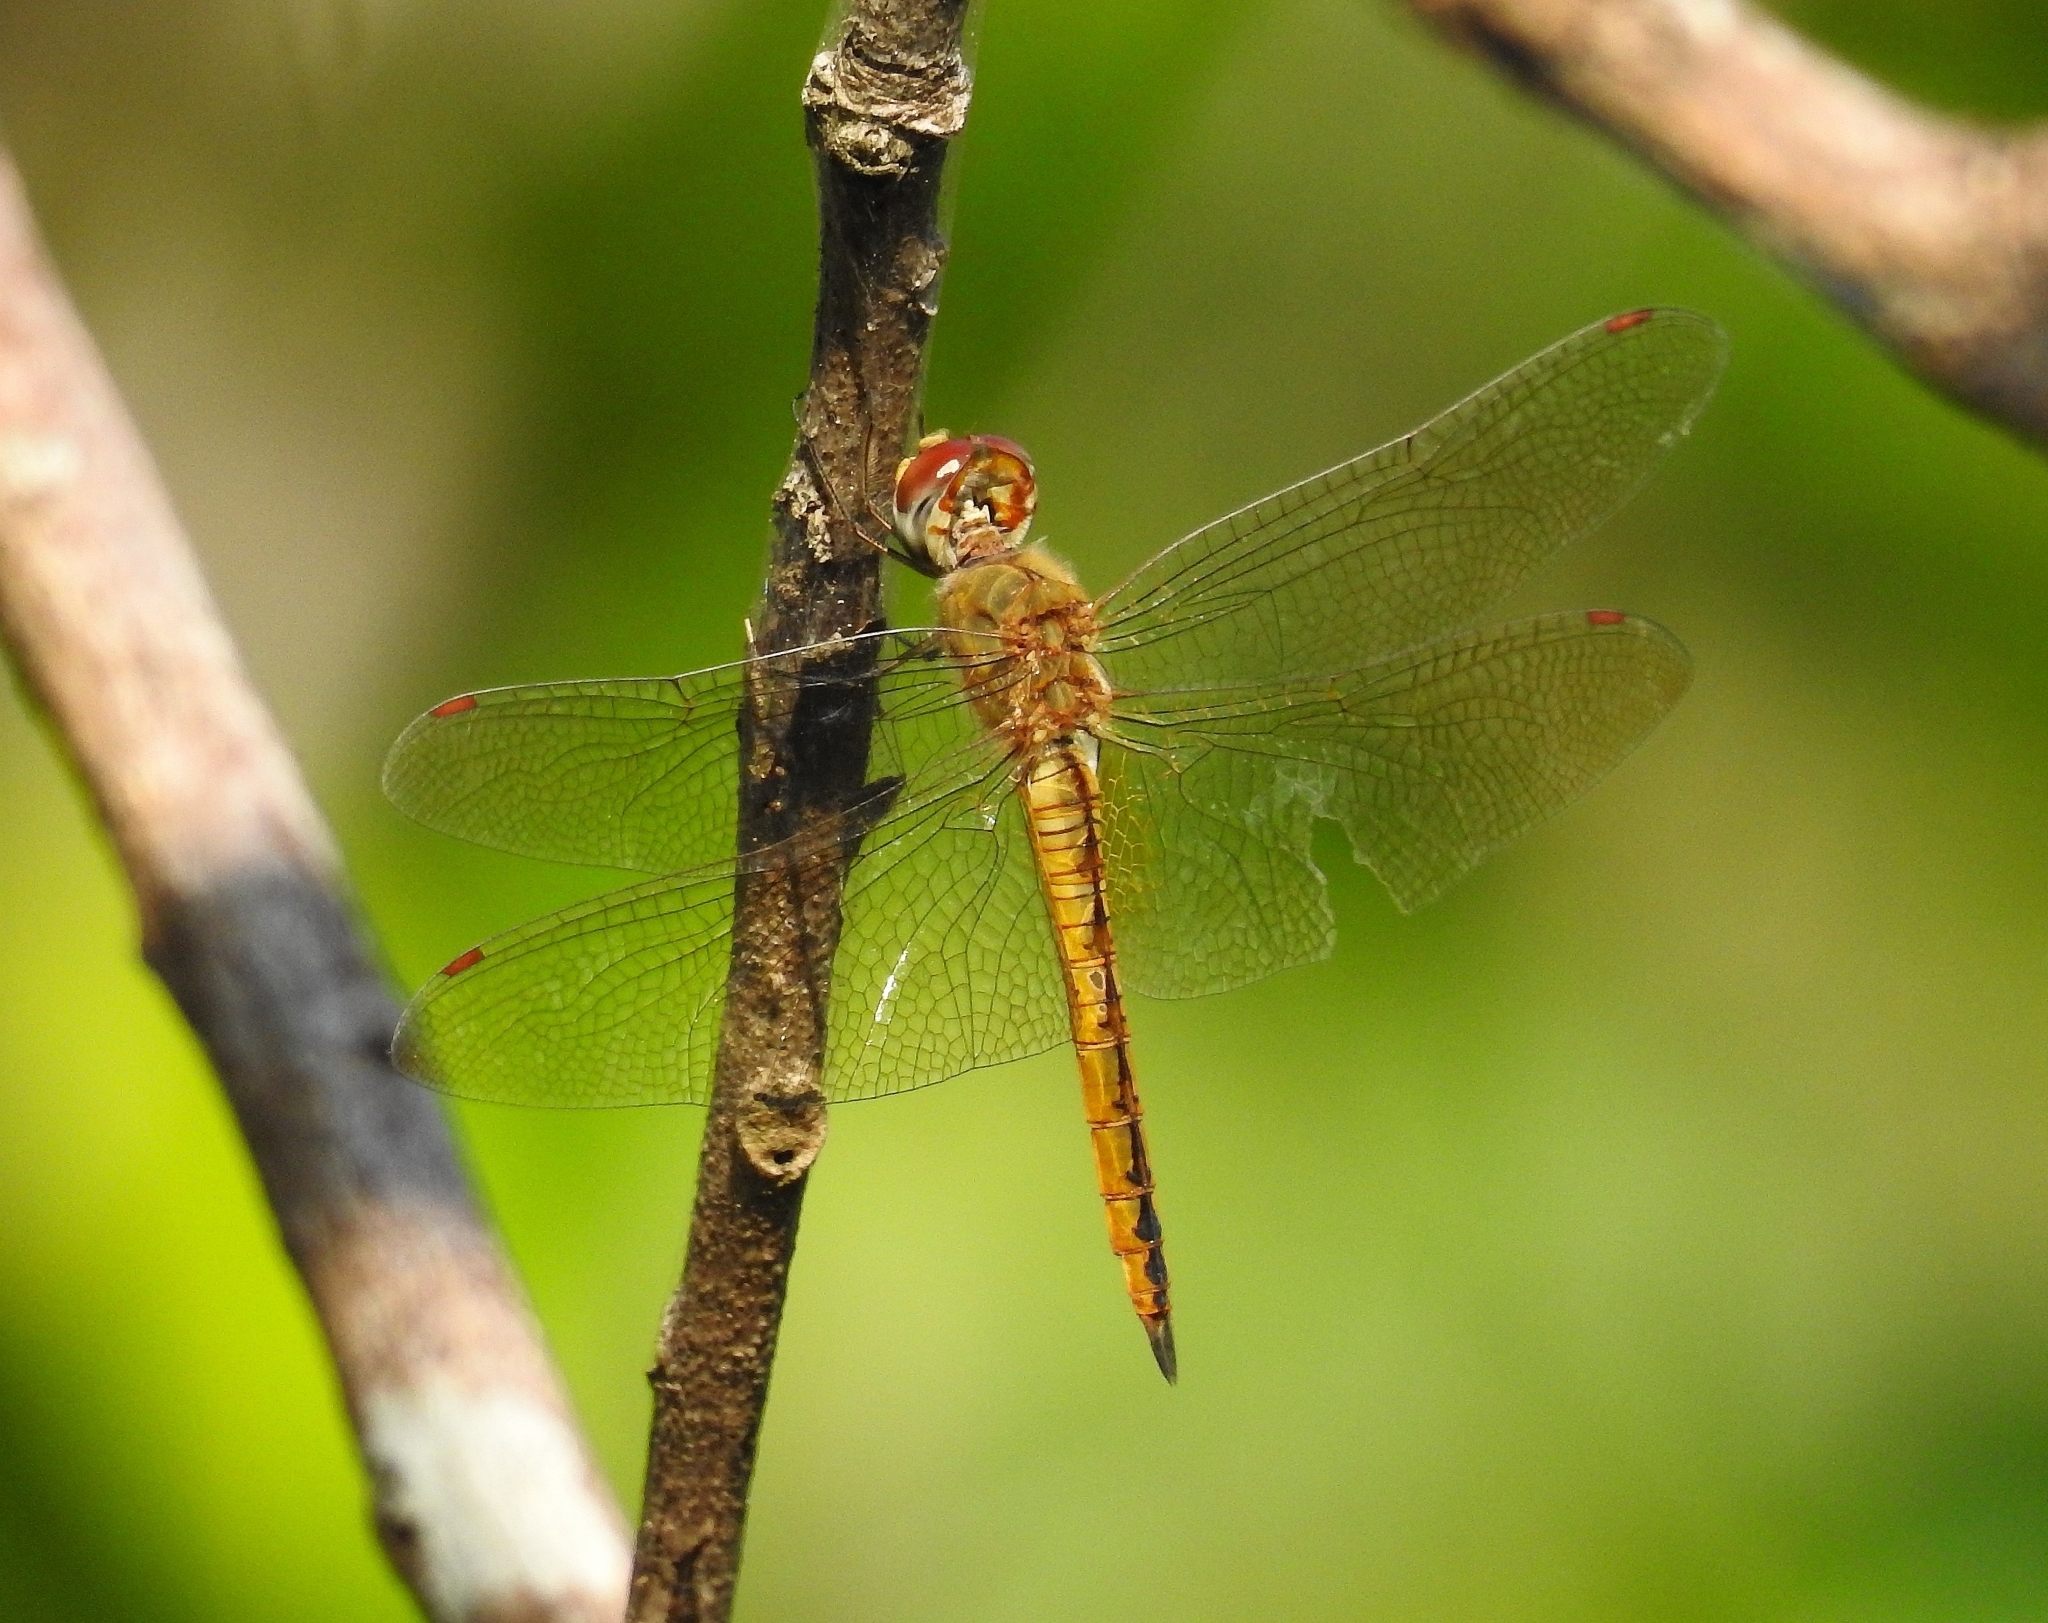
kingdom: Animalia
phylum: Arthropoda
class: Insecta
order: Odonata
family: Libellulidae
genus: Pantala
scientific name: Pantala flavescens
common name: Wandering glider
